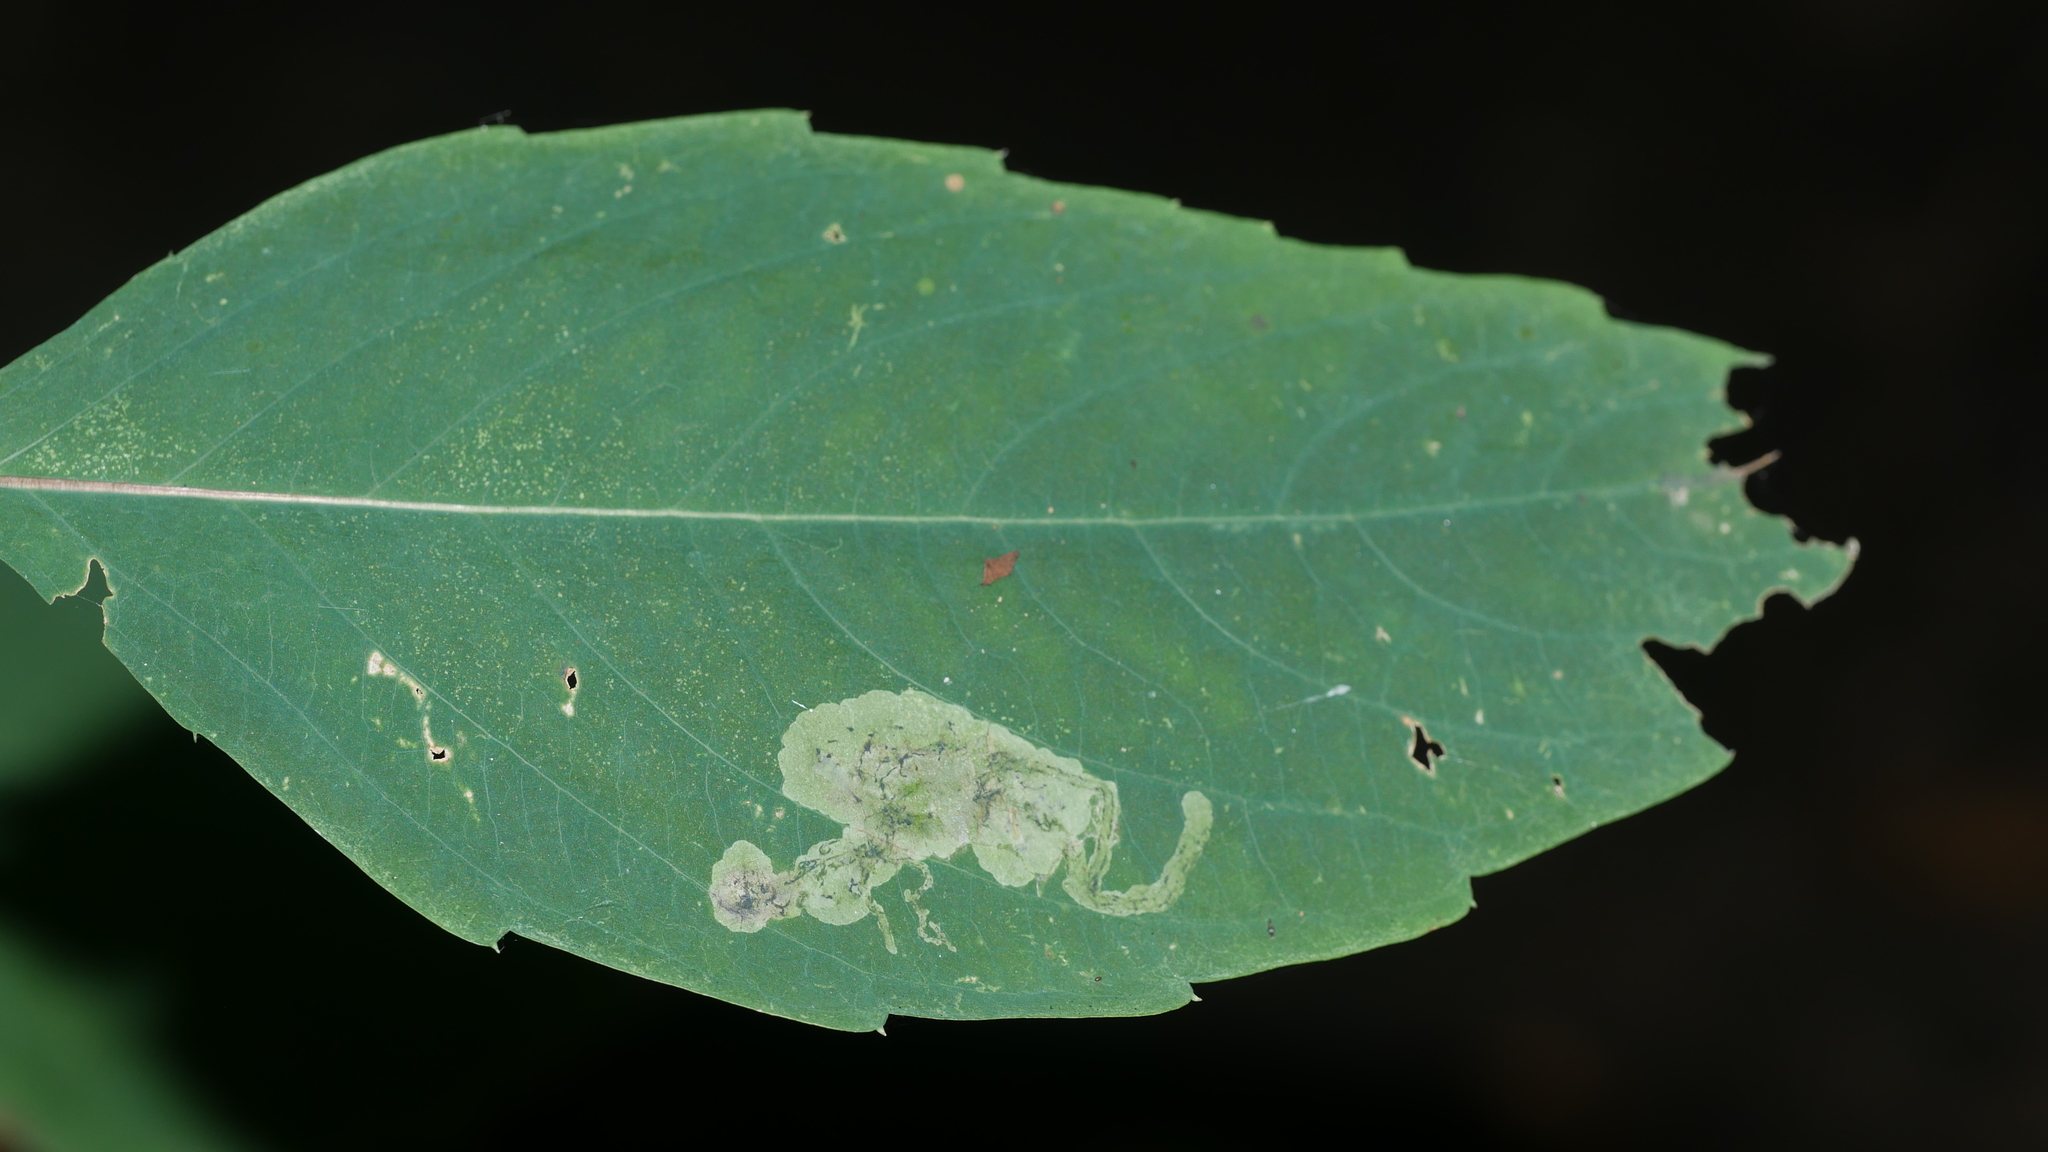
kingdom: Animalia
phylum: Arthropoda
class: Insecta
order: Diptera
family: Agromyzidae
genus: Phytoliriomyza
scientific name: Phytoliriomyza melampyga
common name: Jewelweed leaf-miner fly
